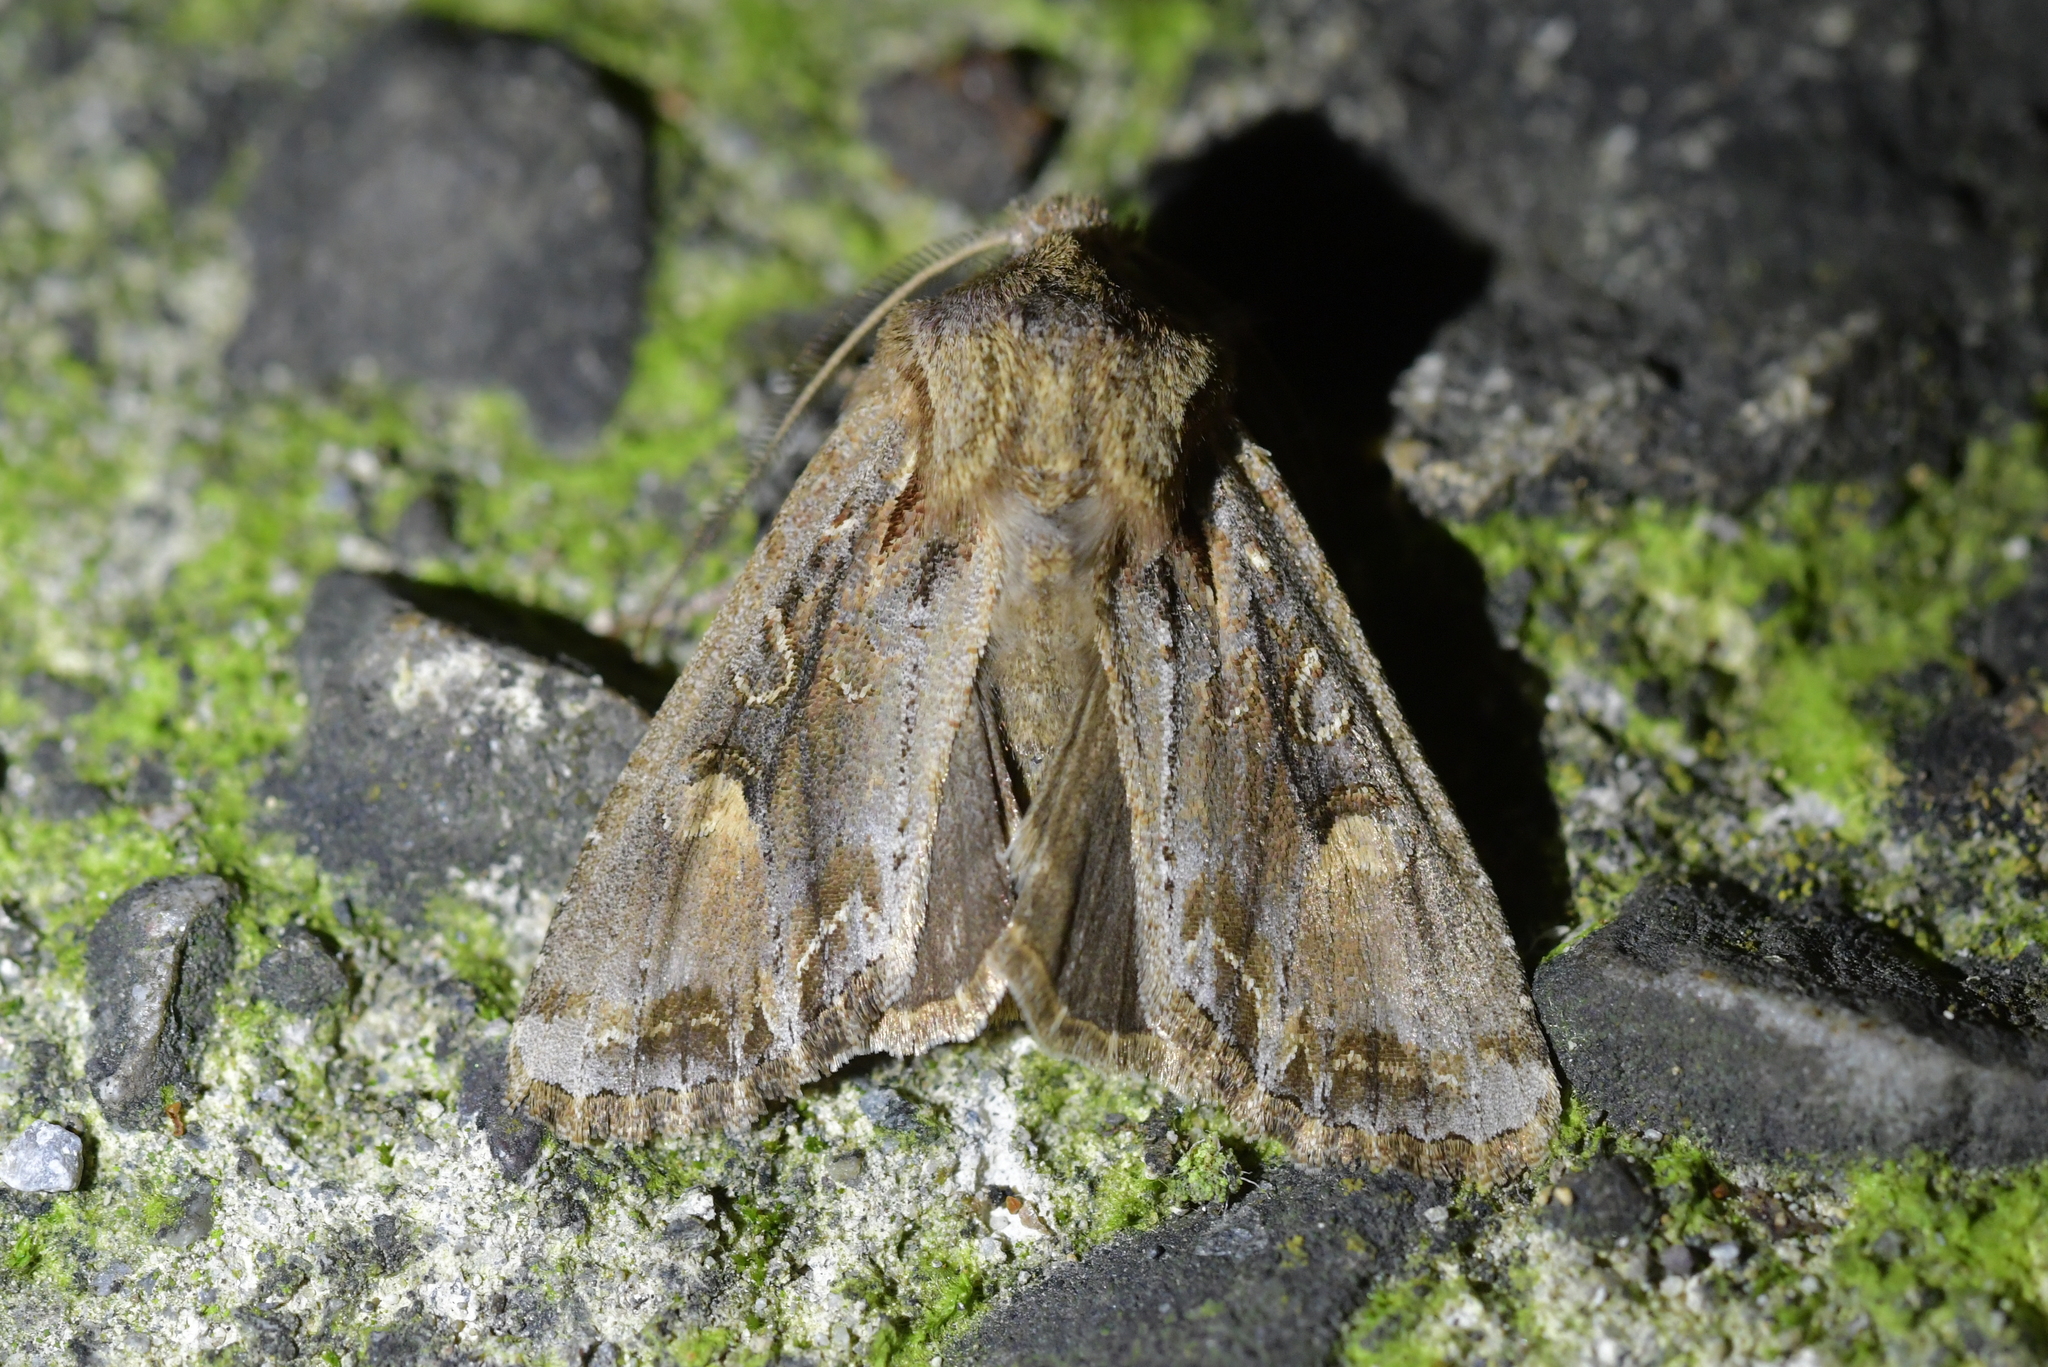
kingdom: Animalia
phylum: Arthropoda
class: Insecta
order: Lepidoptera
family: Noctuidae
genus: Ichneutica
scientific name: Ichneutica
